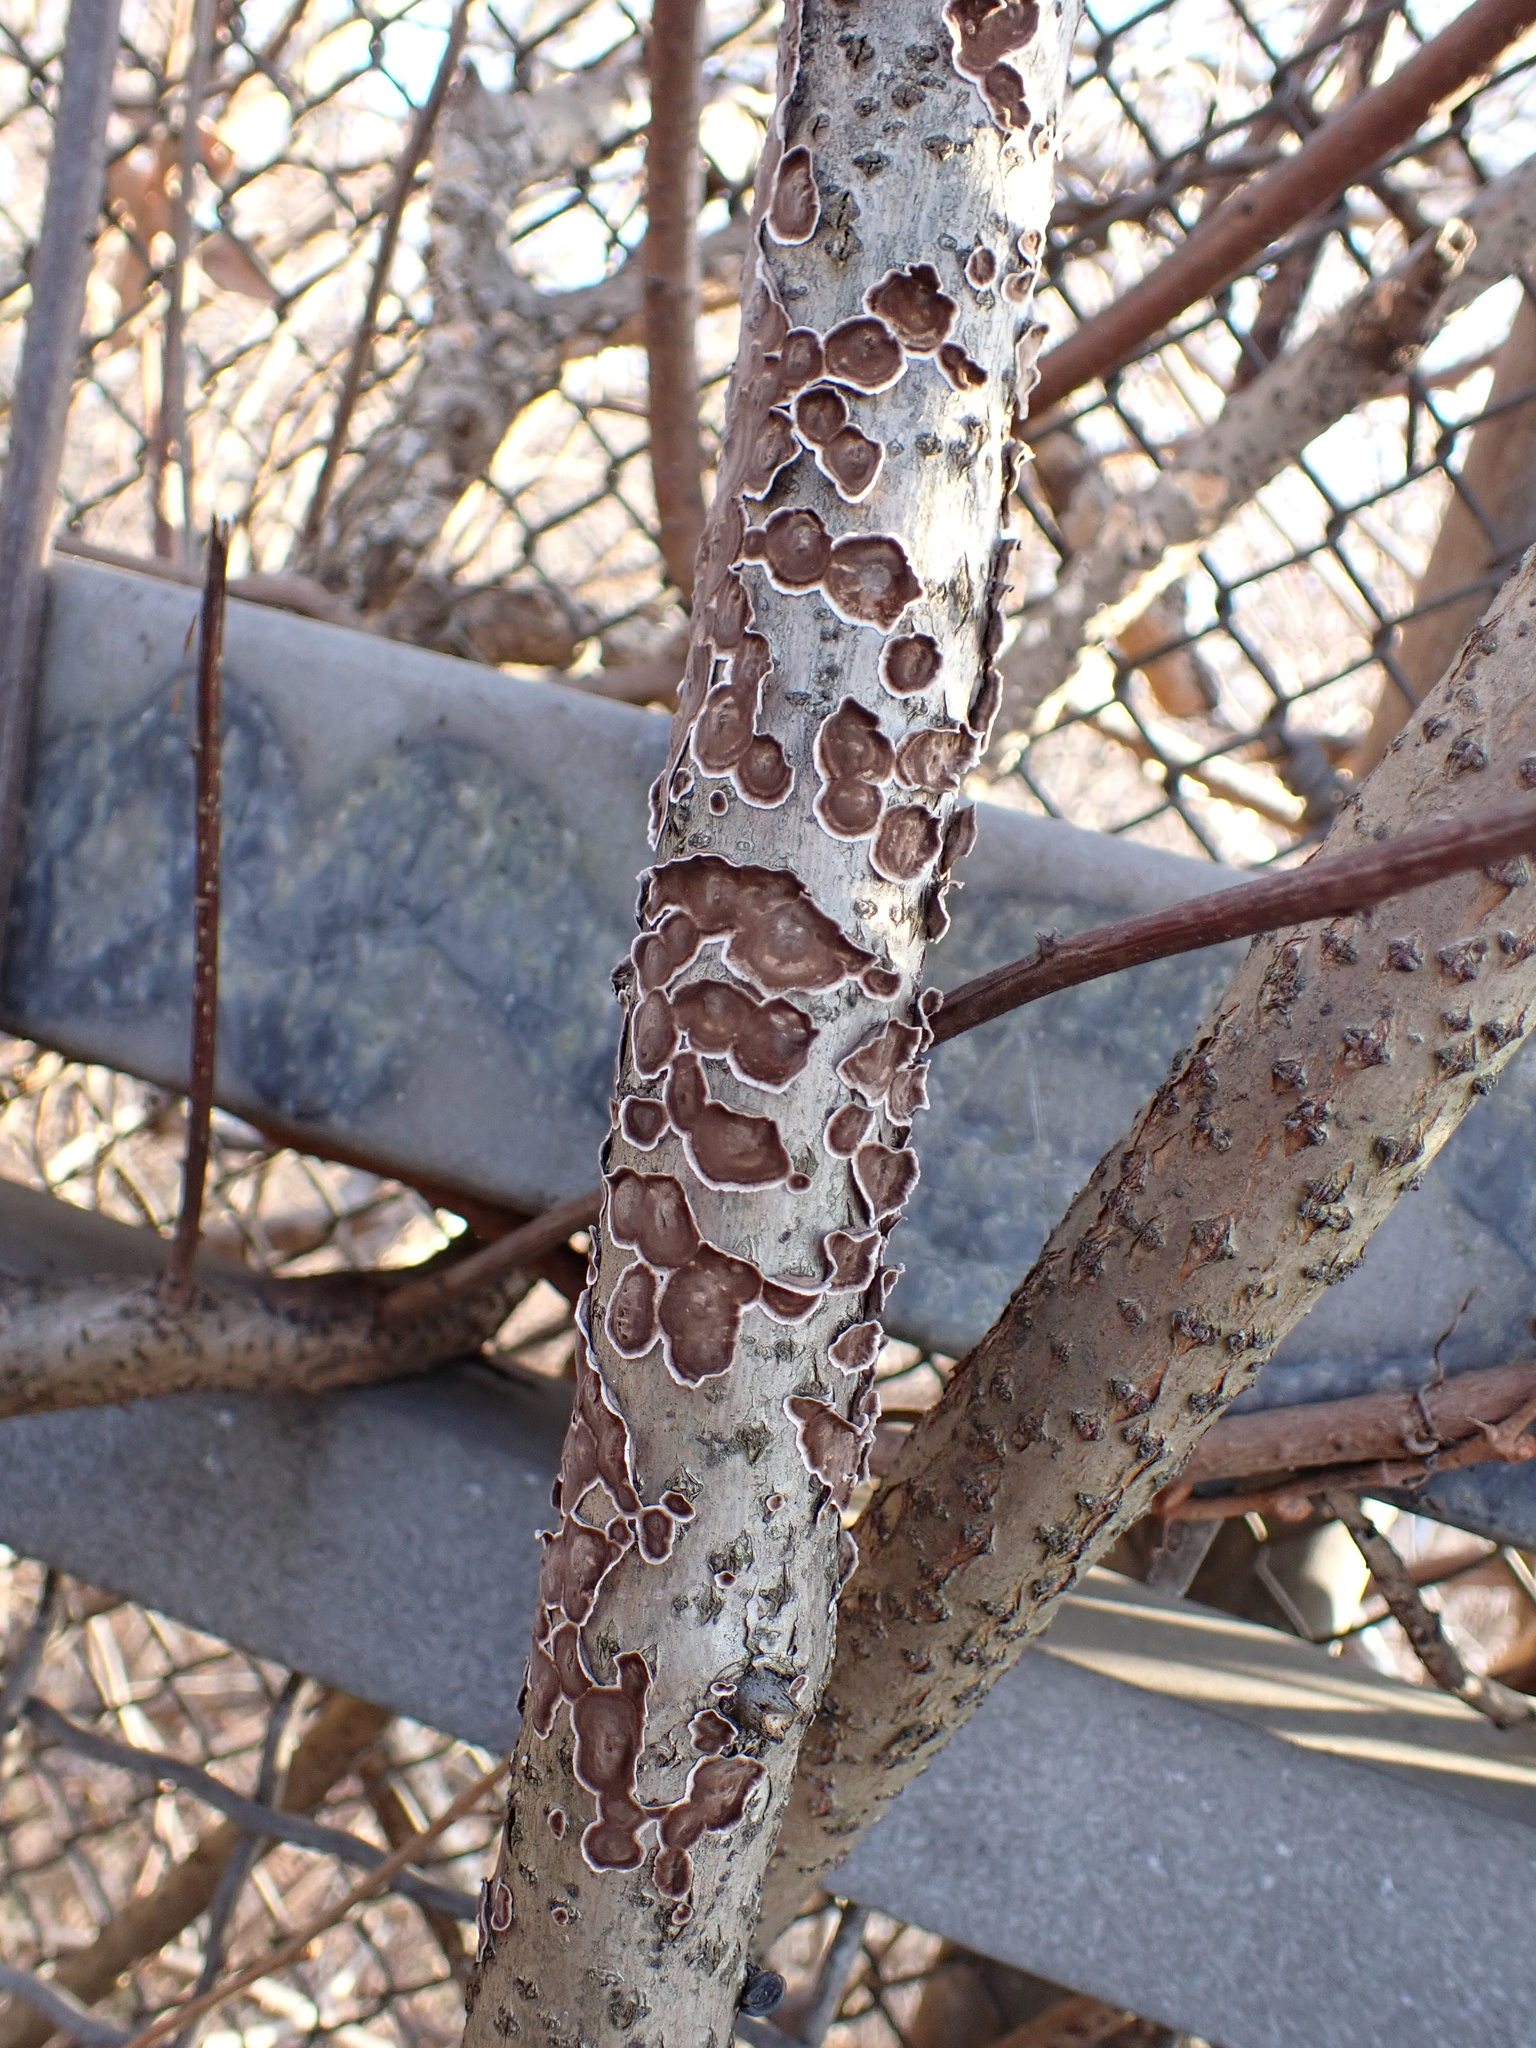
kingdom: Fungi
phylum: Basidiomycota
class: Agaricomycetes
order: Russulales
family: Peniophoraceae
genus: Peniophora
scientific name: Peniophora albobadia
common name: Giraffe spots
